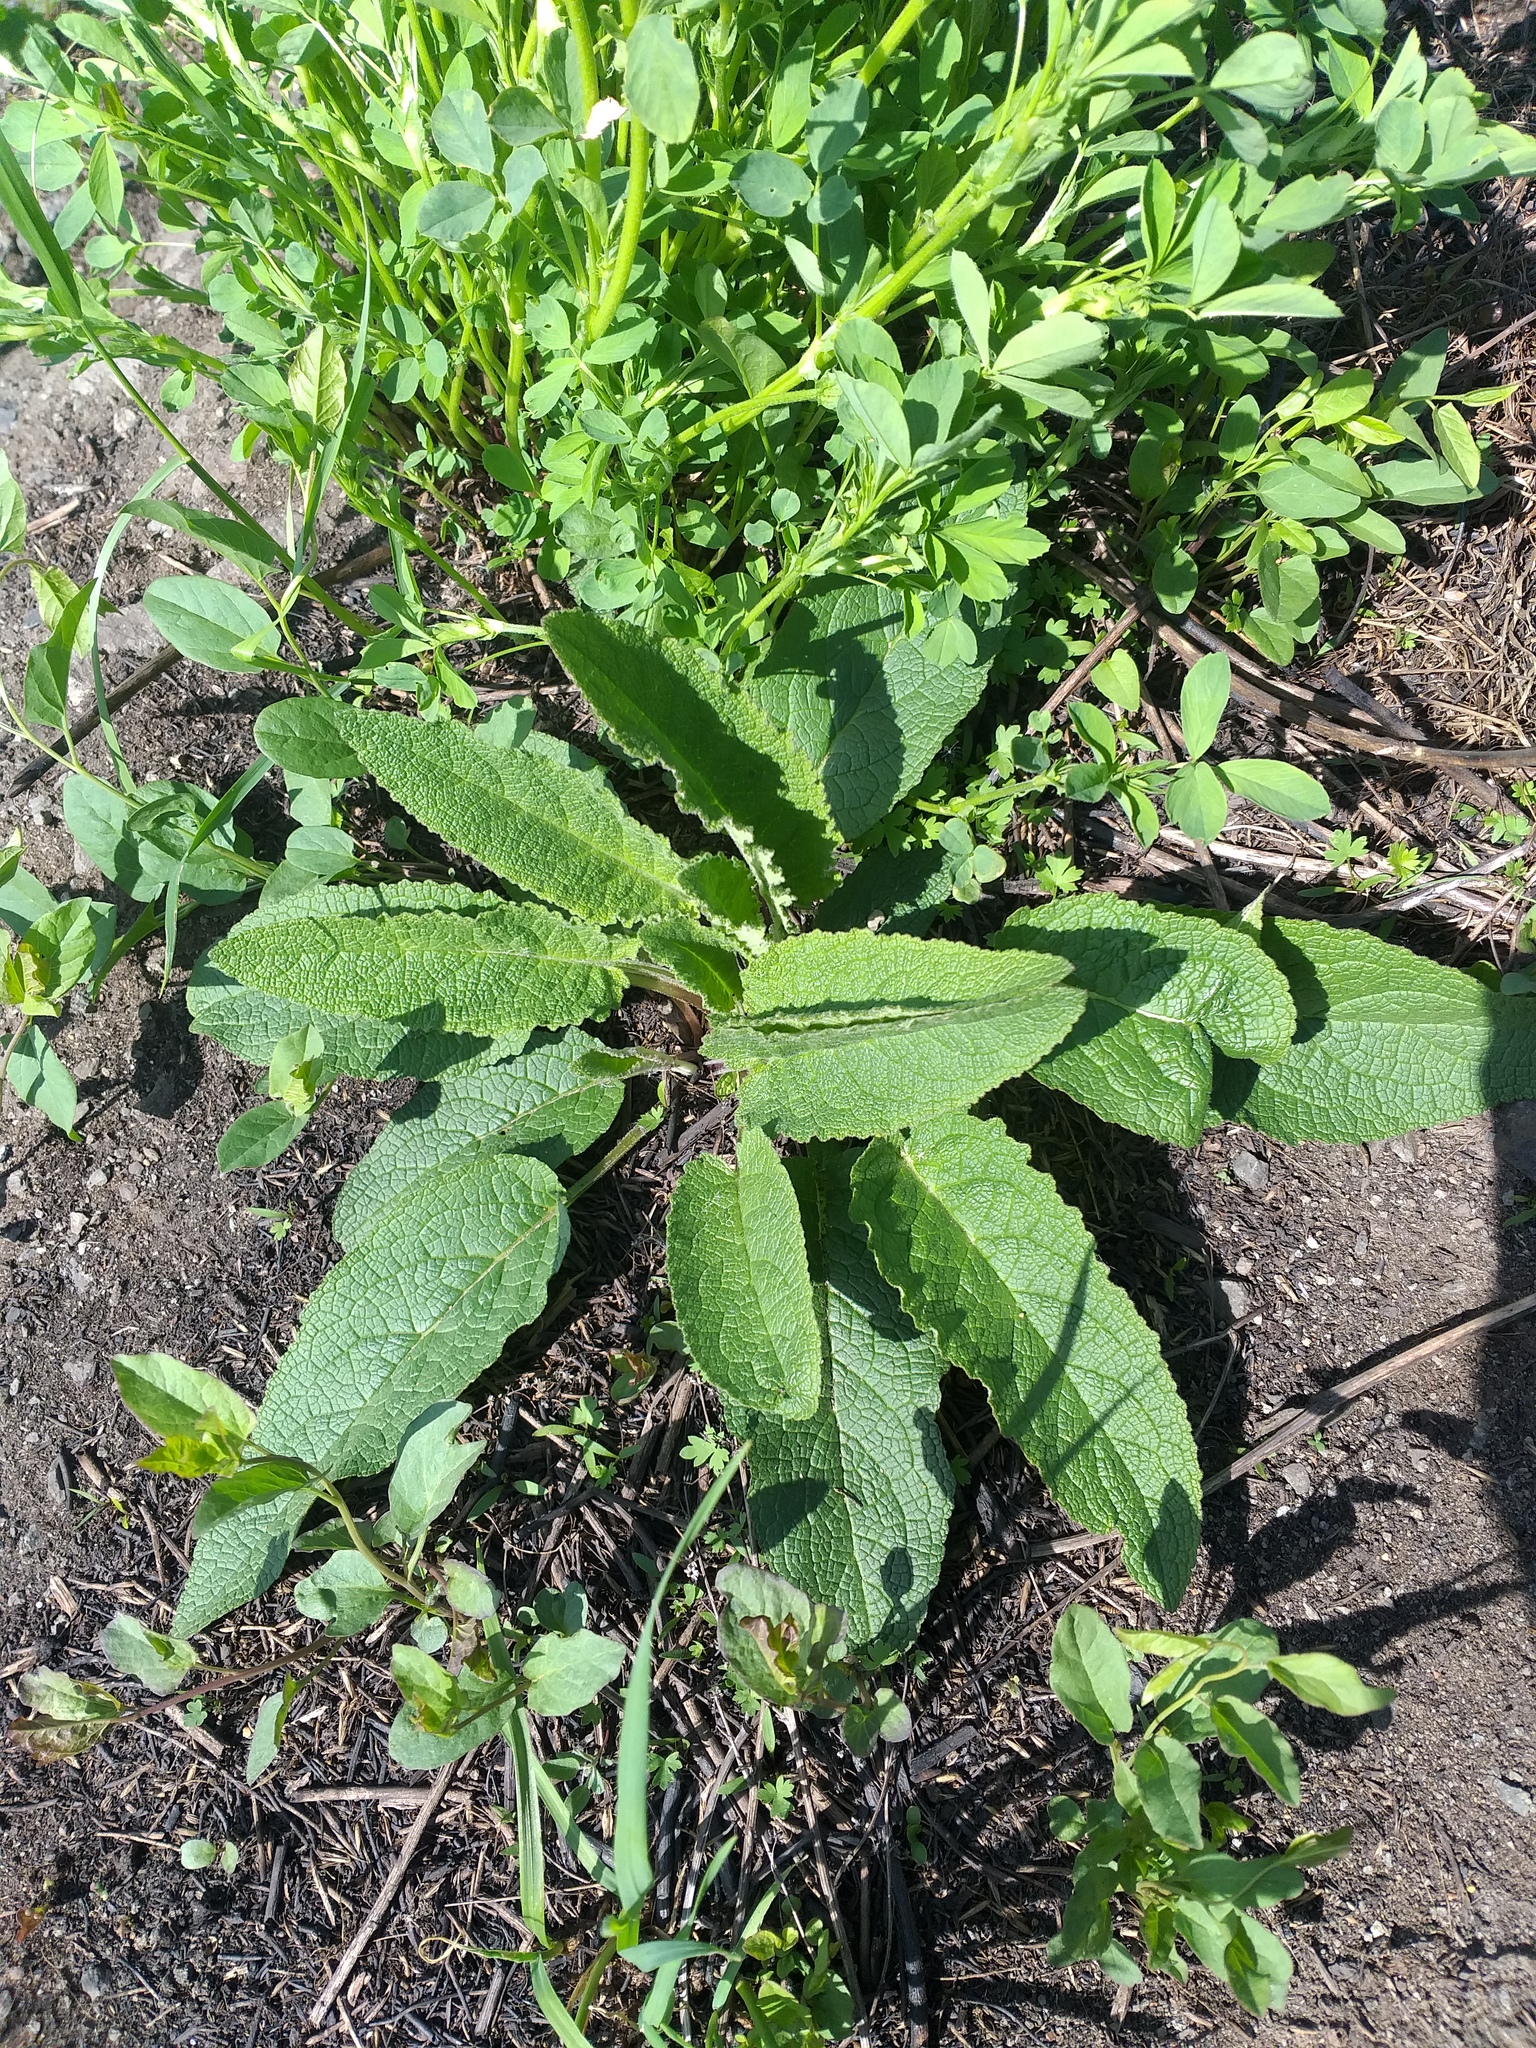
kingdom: Plantae
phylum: Tracheophyta
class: Magnoliopsida
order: Lamiales
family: Scrophulariaceae
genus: Verbascum
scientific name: Verbascum nigrum
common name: Dark mullein
